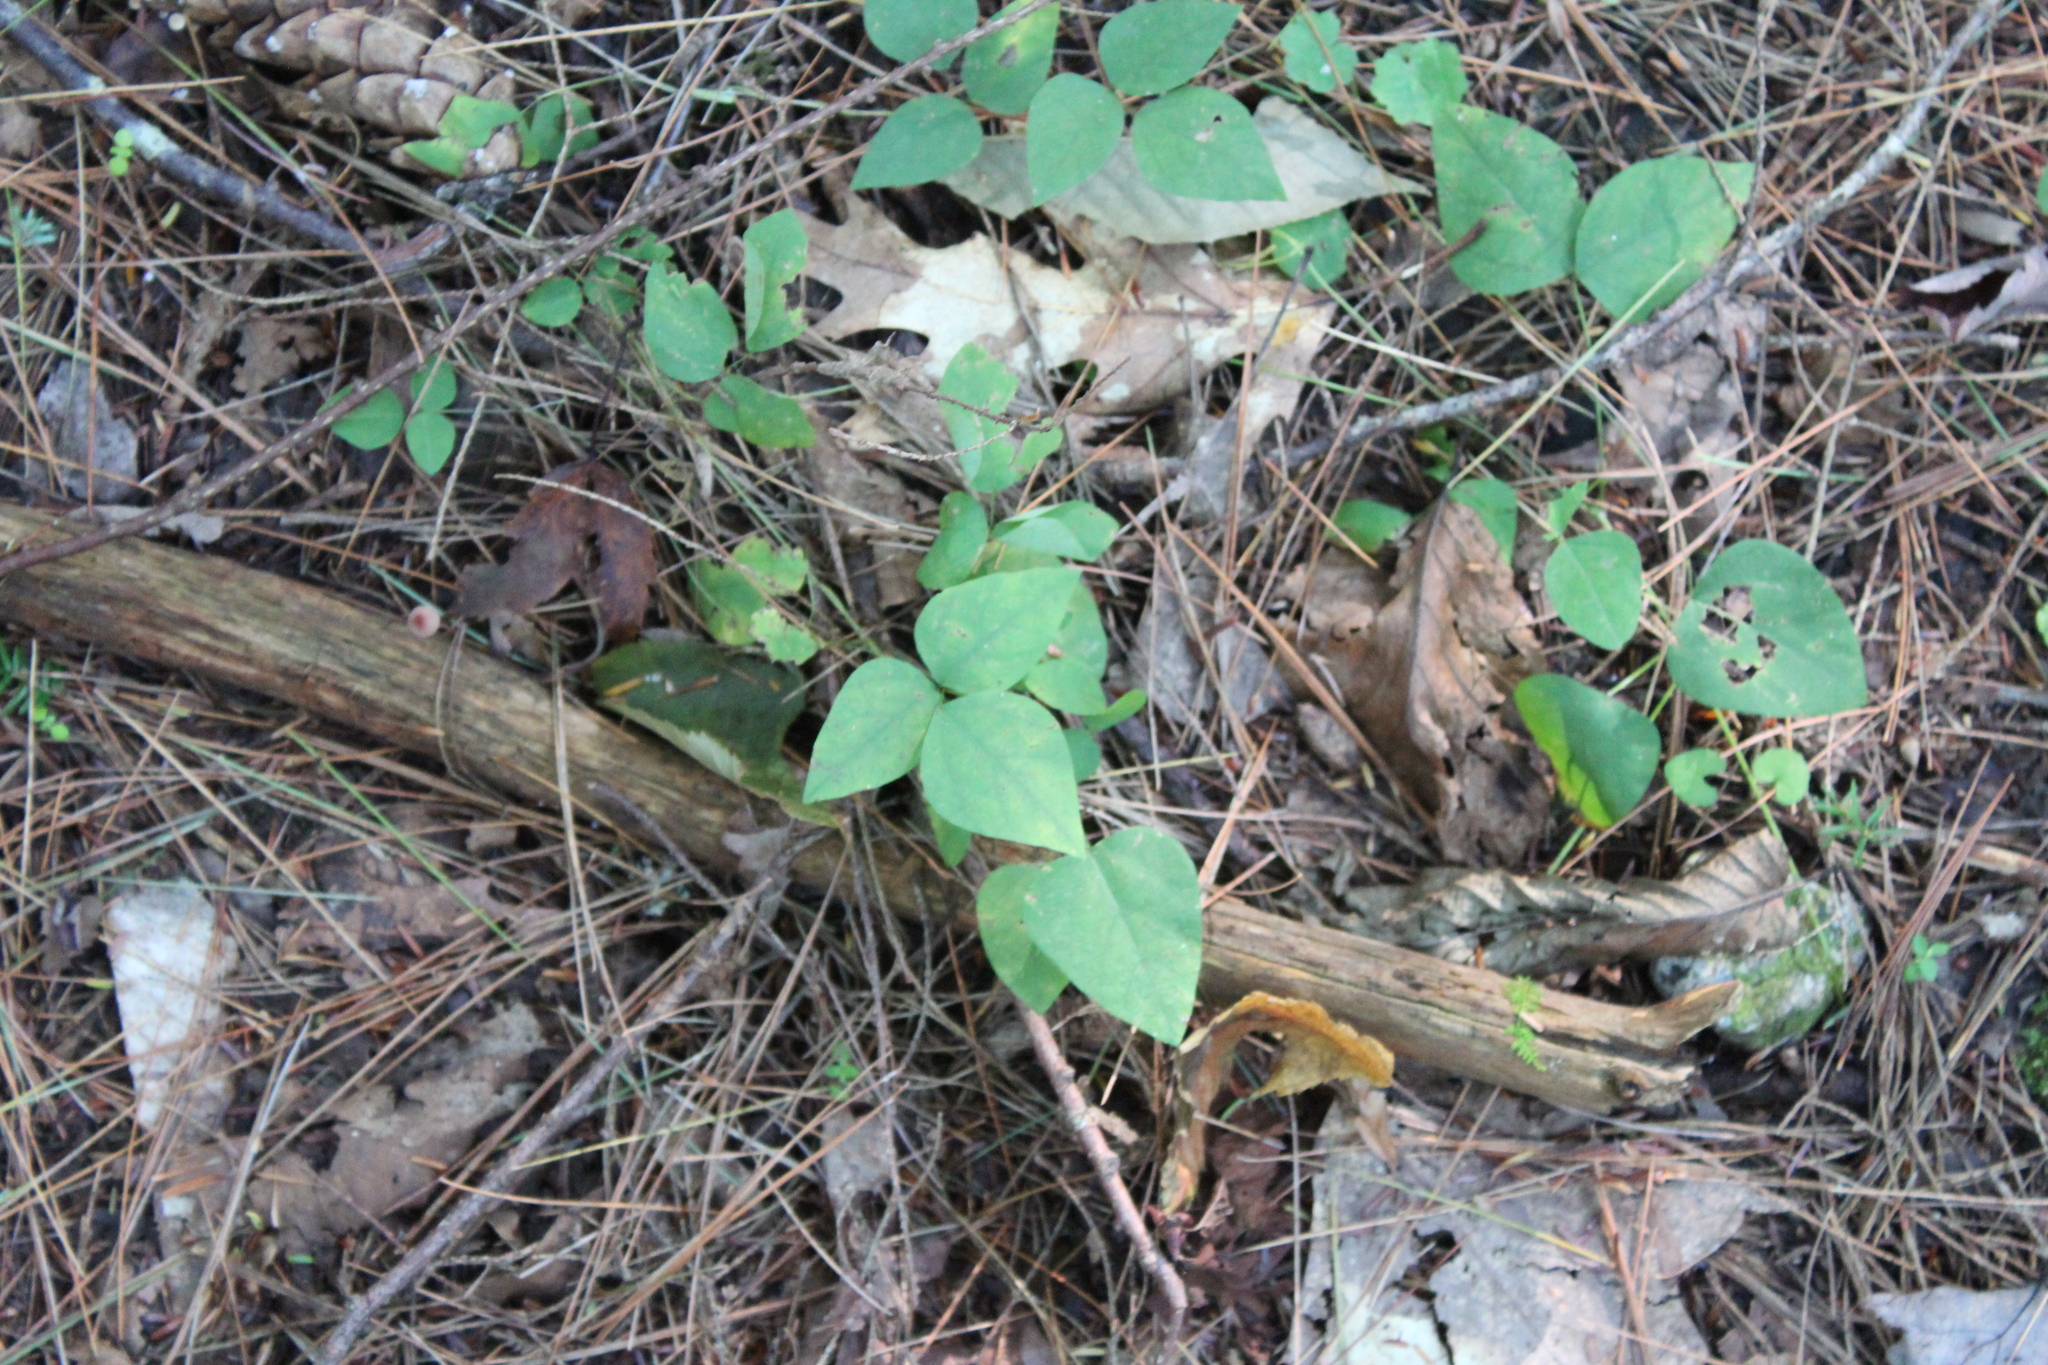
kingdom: Plantae
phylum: Tracheophyta
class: Magnoliopsida
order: Fabales
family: Fabaceae
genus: Amphicarpaea
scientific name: Amphicarpaea bracteata
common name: American hog peanut
